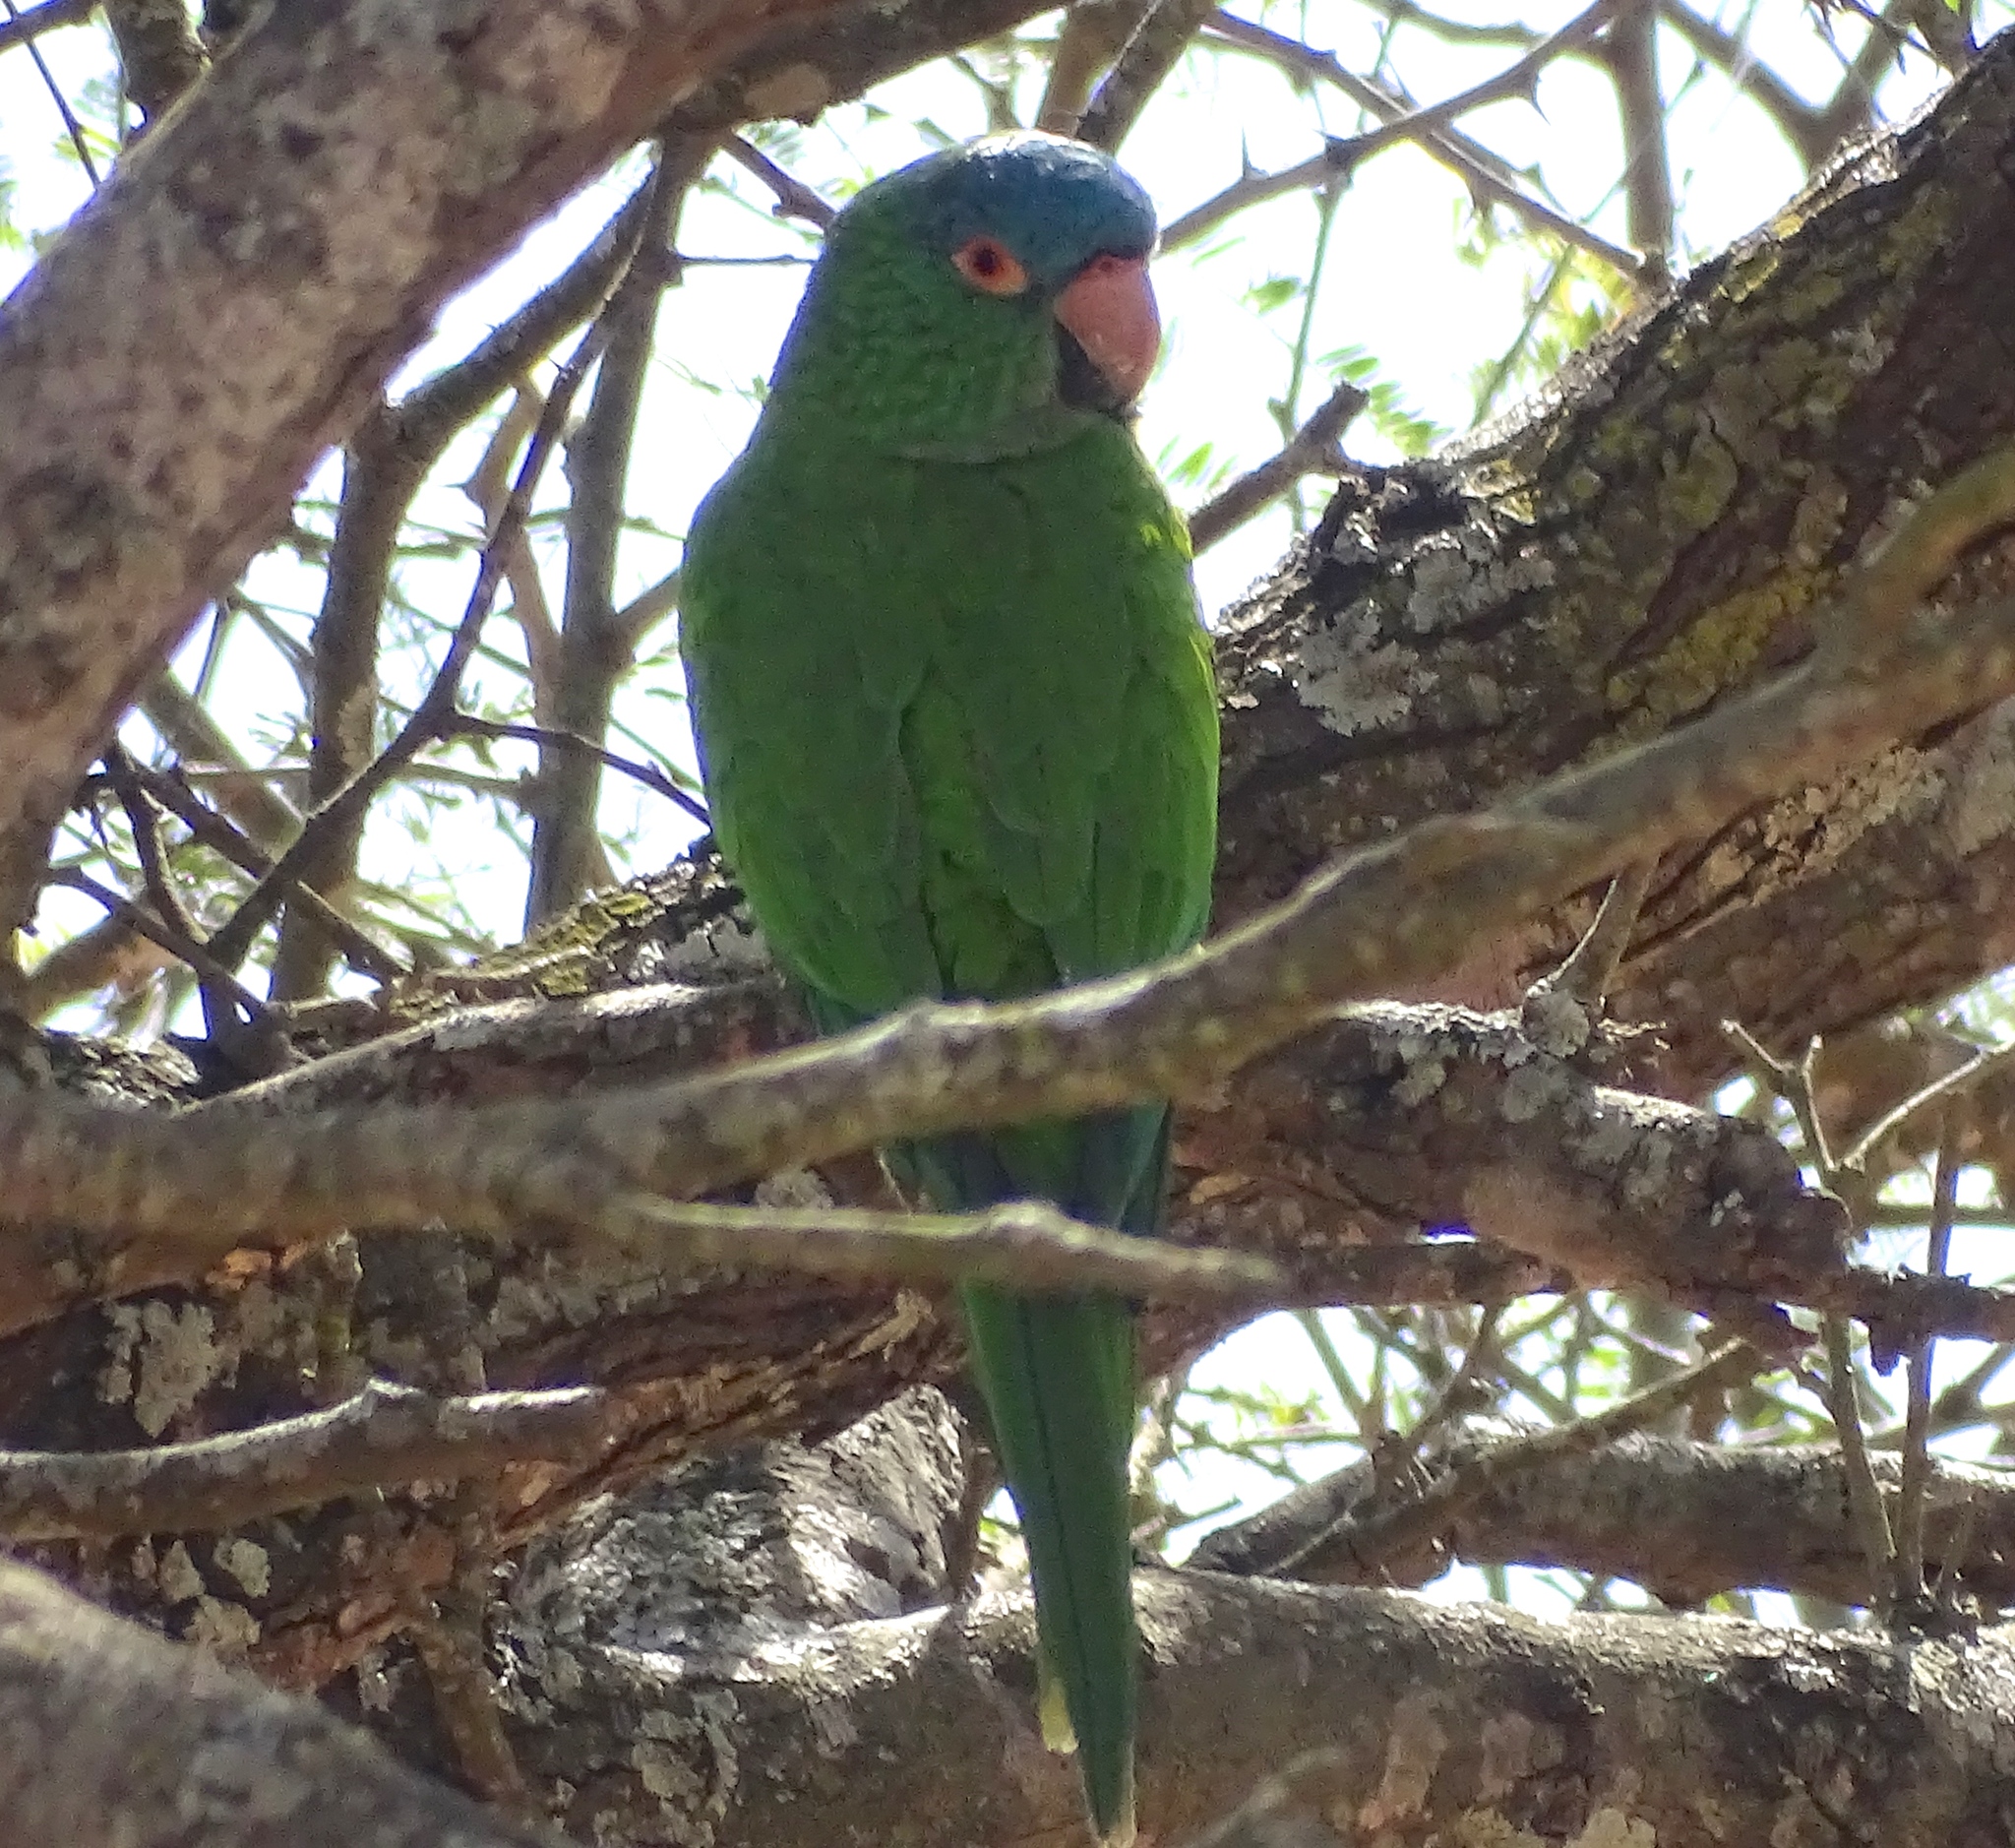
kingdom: Animalia
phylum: Chordata
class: Aves
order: Psittaciformes
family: Psittacidae
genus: Aratinga
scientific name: Aratinga acuticaudata
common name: Blue-crowned parakeet
